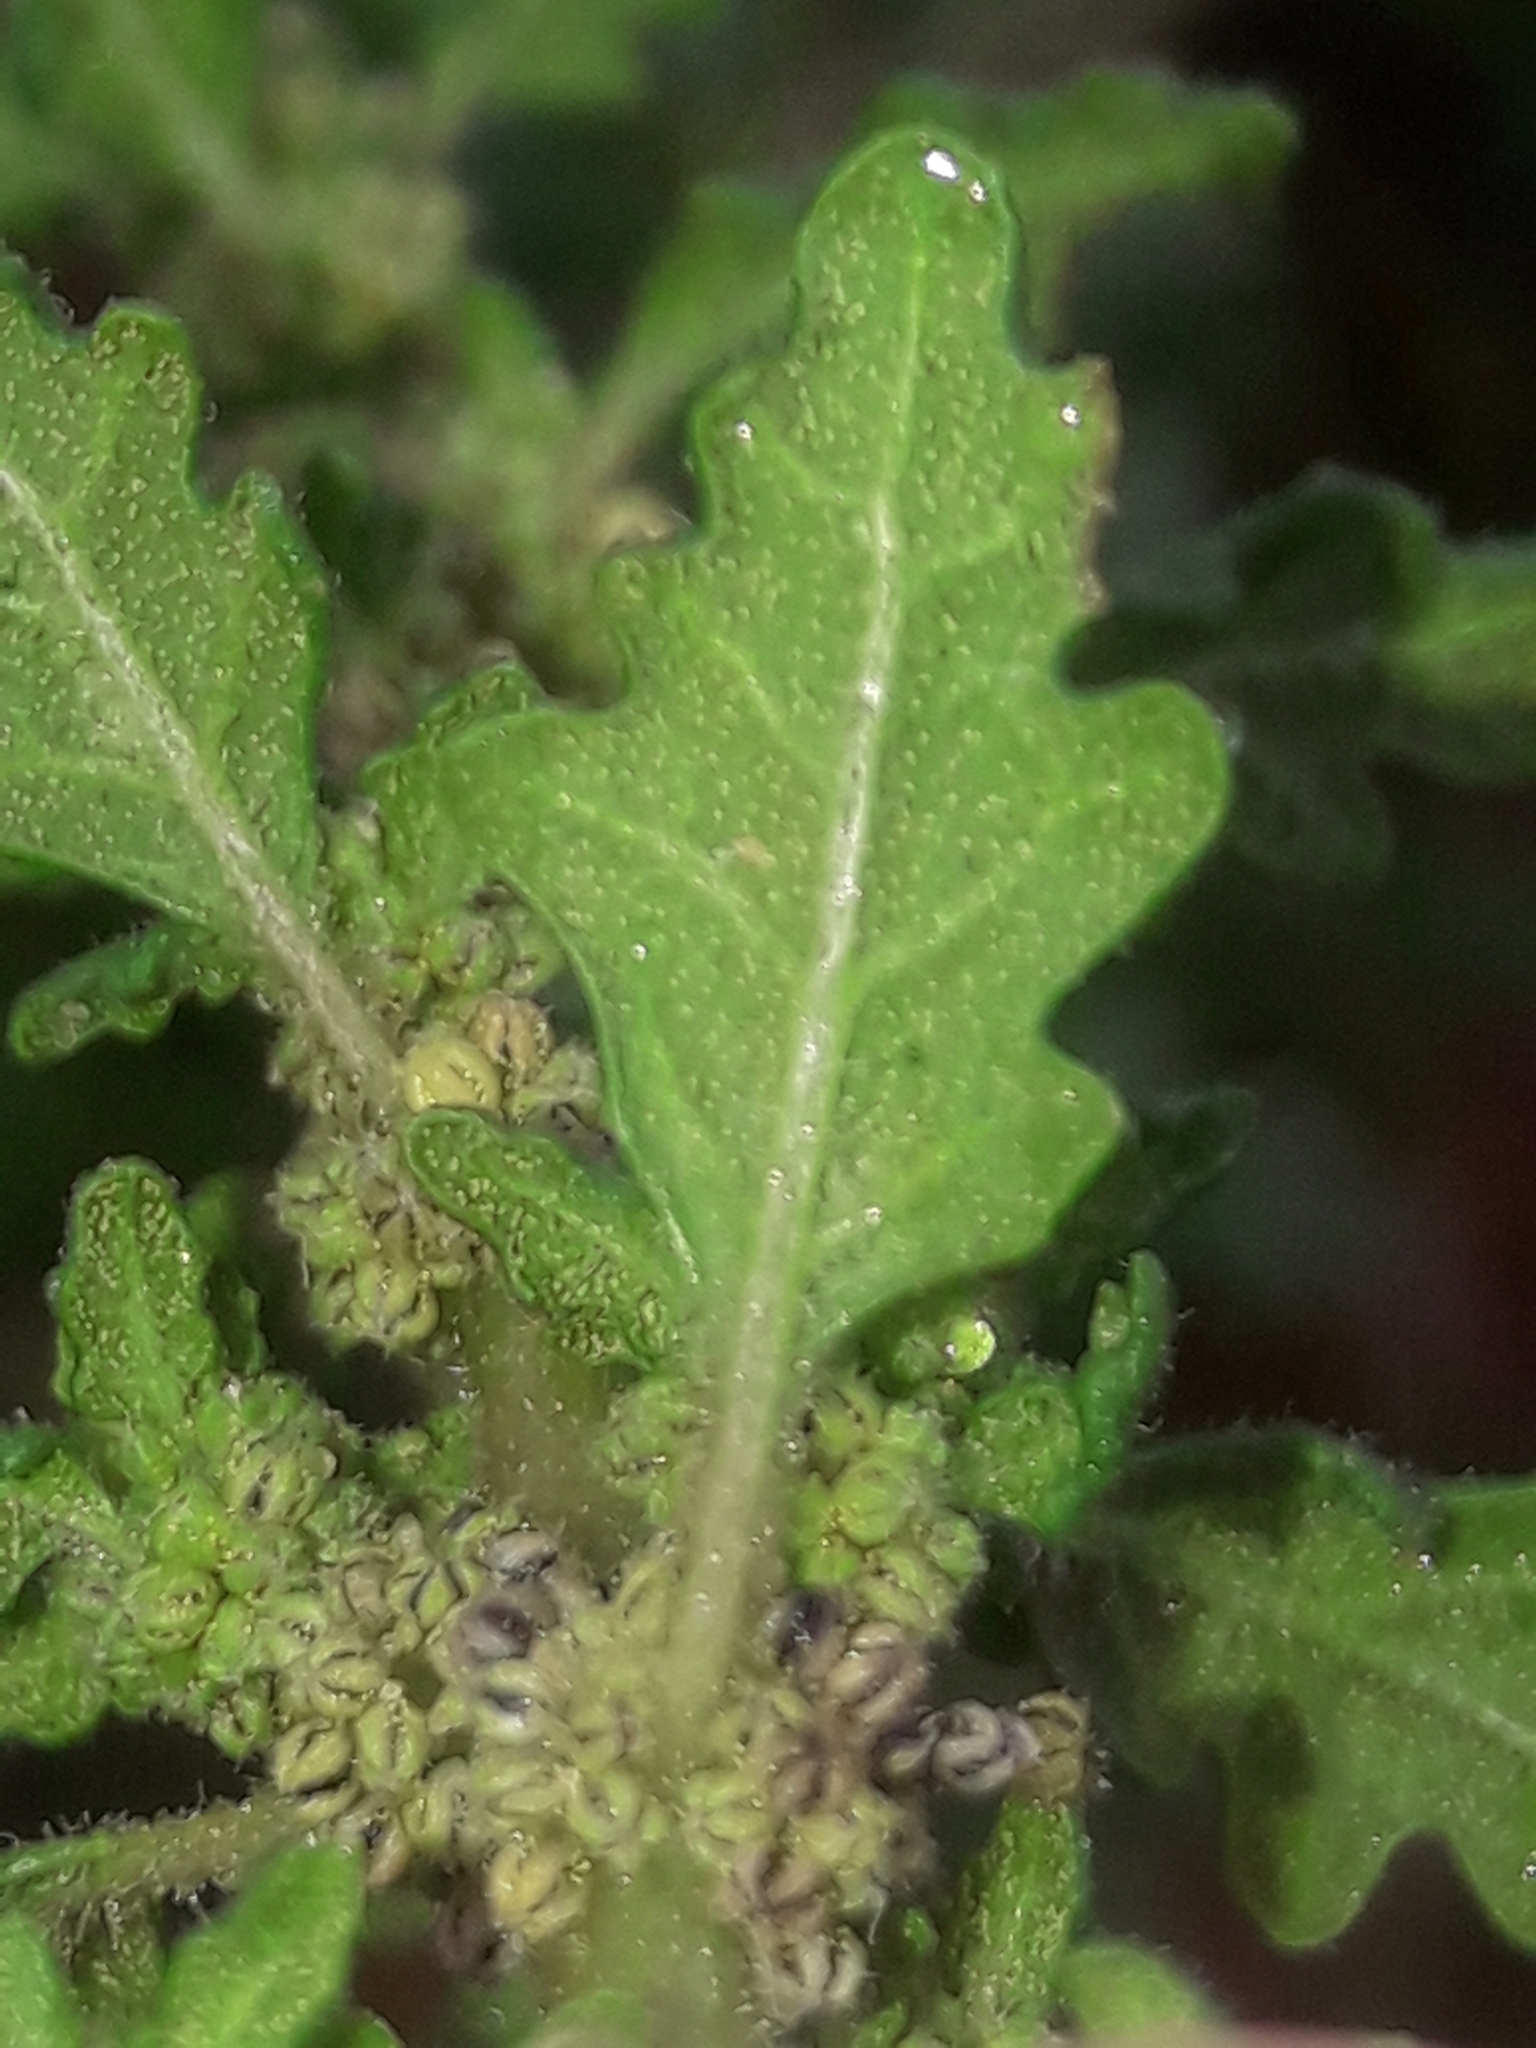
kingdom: Plantae
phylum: Tracheophyta
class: Magnoliopsida
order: Caryophyllales
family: Amaranthaceae
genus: Dysphania
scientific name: Dysphania pumilio
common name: Clammy goosefoot
